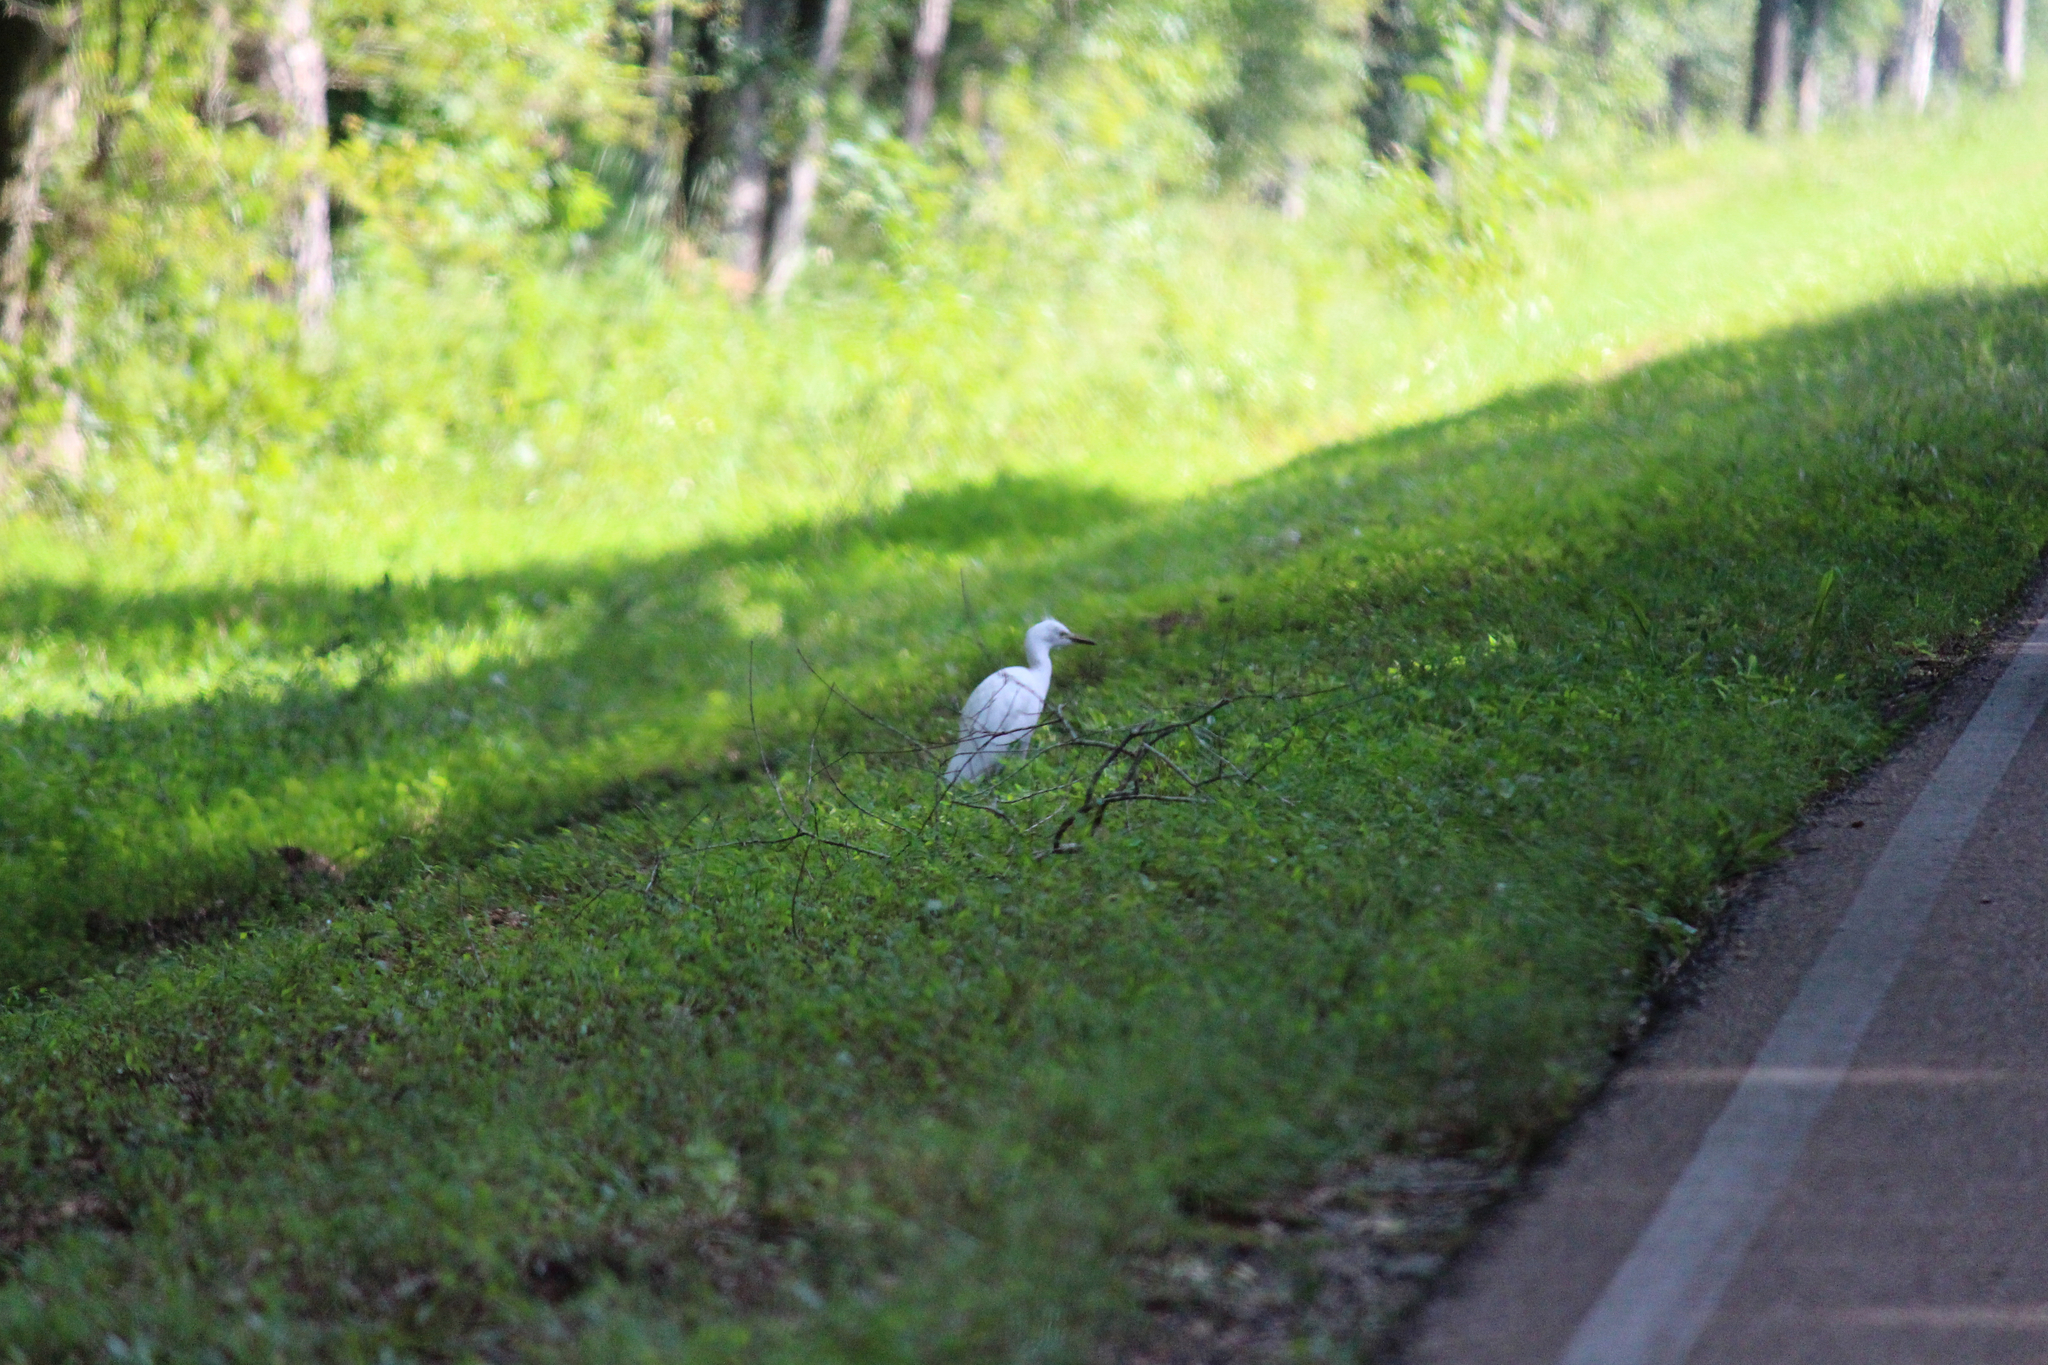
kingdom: Animalia
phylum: Chordata
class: Aves
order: Pelecaniformes
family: Ardeidae
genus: Bubulcus
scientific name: Bubulcus ibis
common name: Cattle egret
